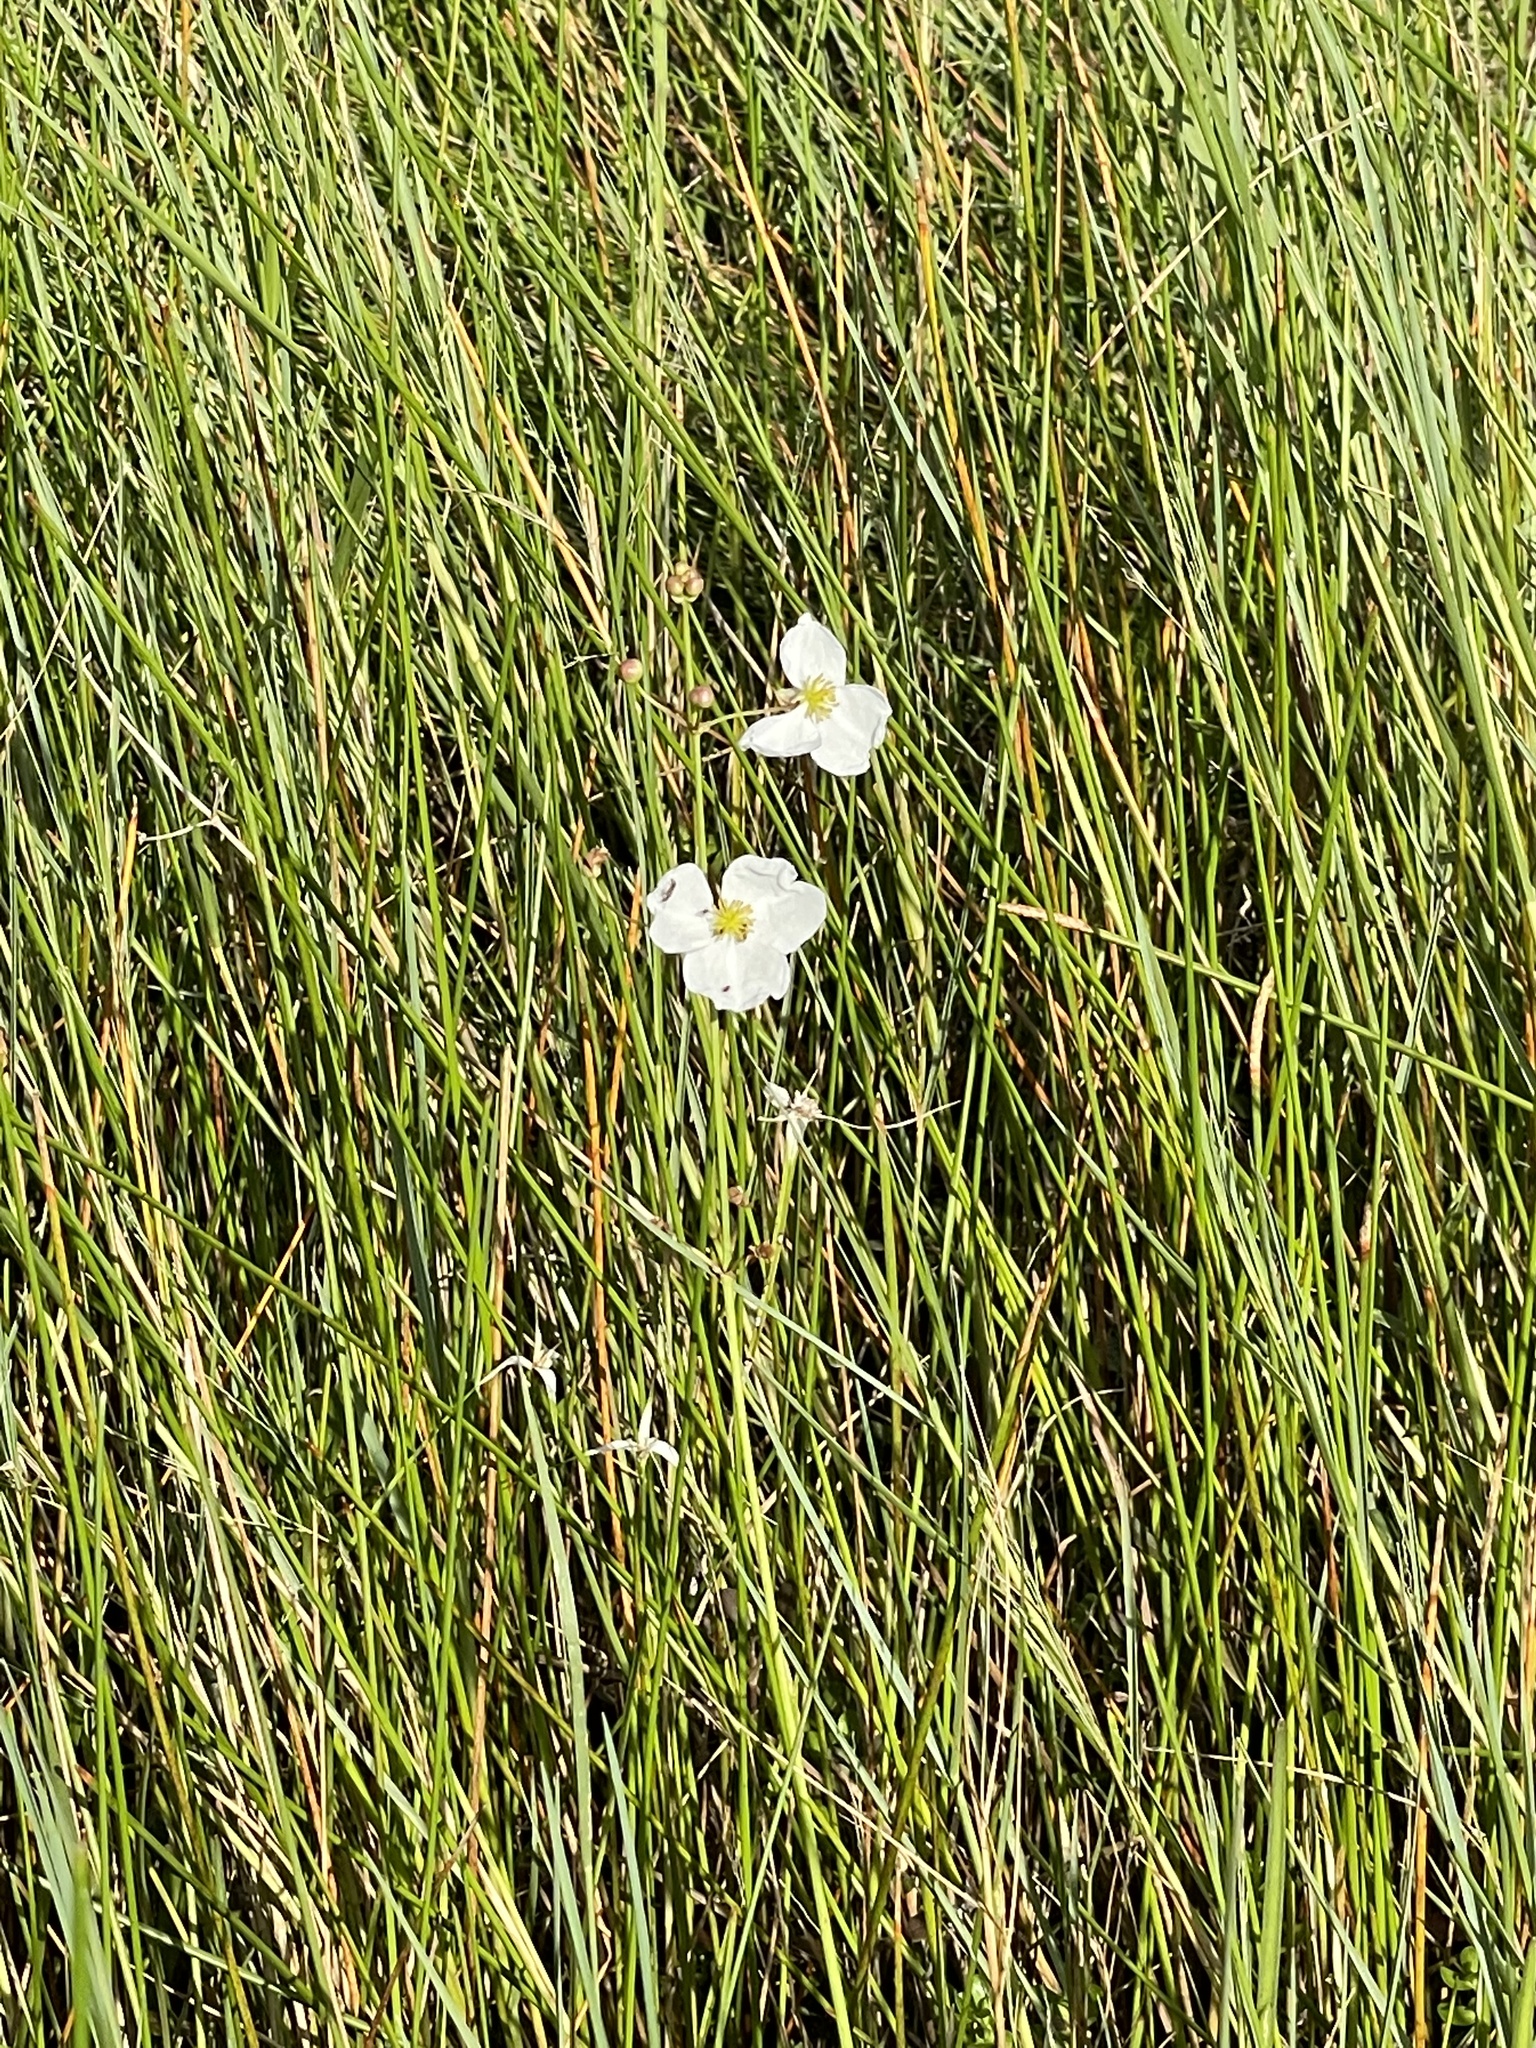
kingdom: Plantae
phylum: Tracheophyta
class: Liliopsida
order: Alismatales
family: Alismataceae
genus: Sagittaria
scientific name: Sagittaria lancifolia
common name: Lance-leaf arrowhead
